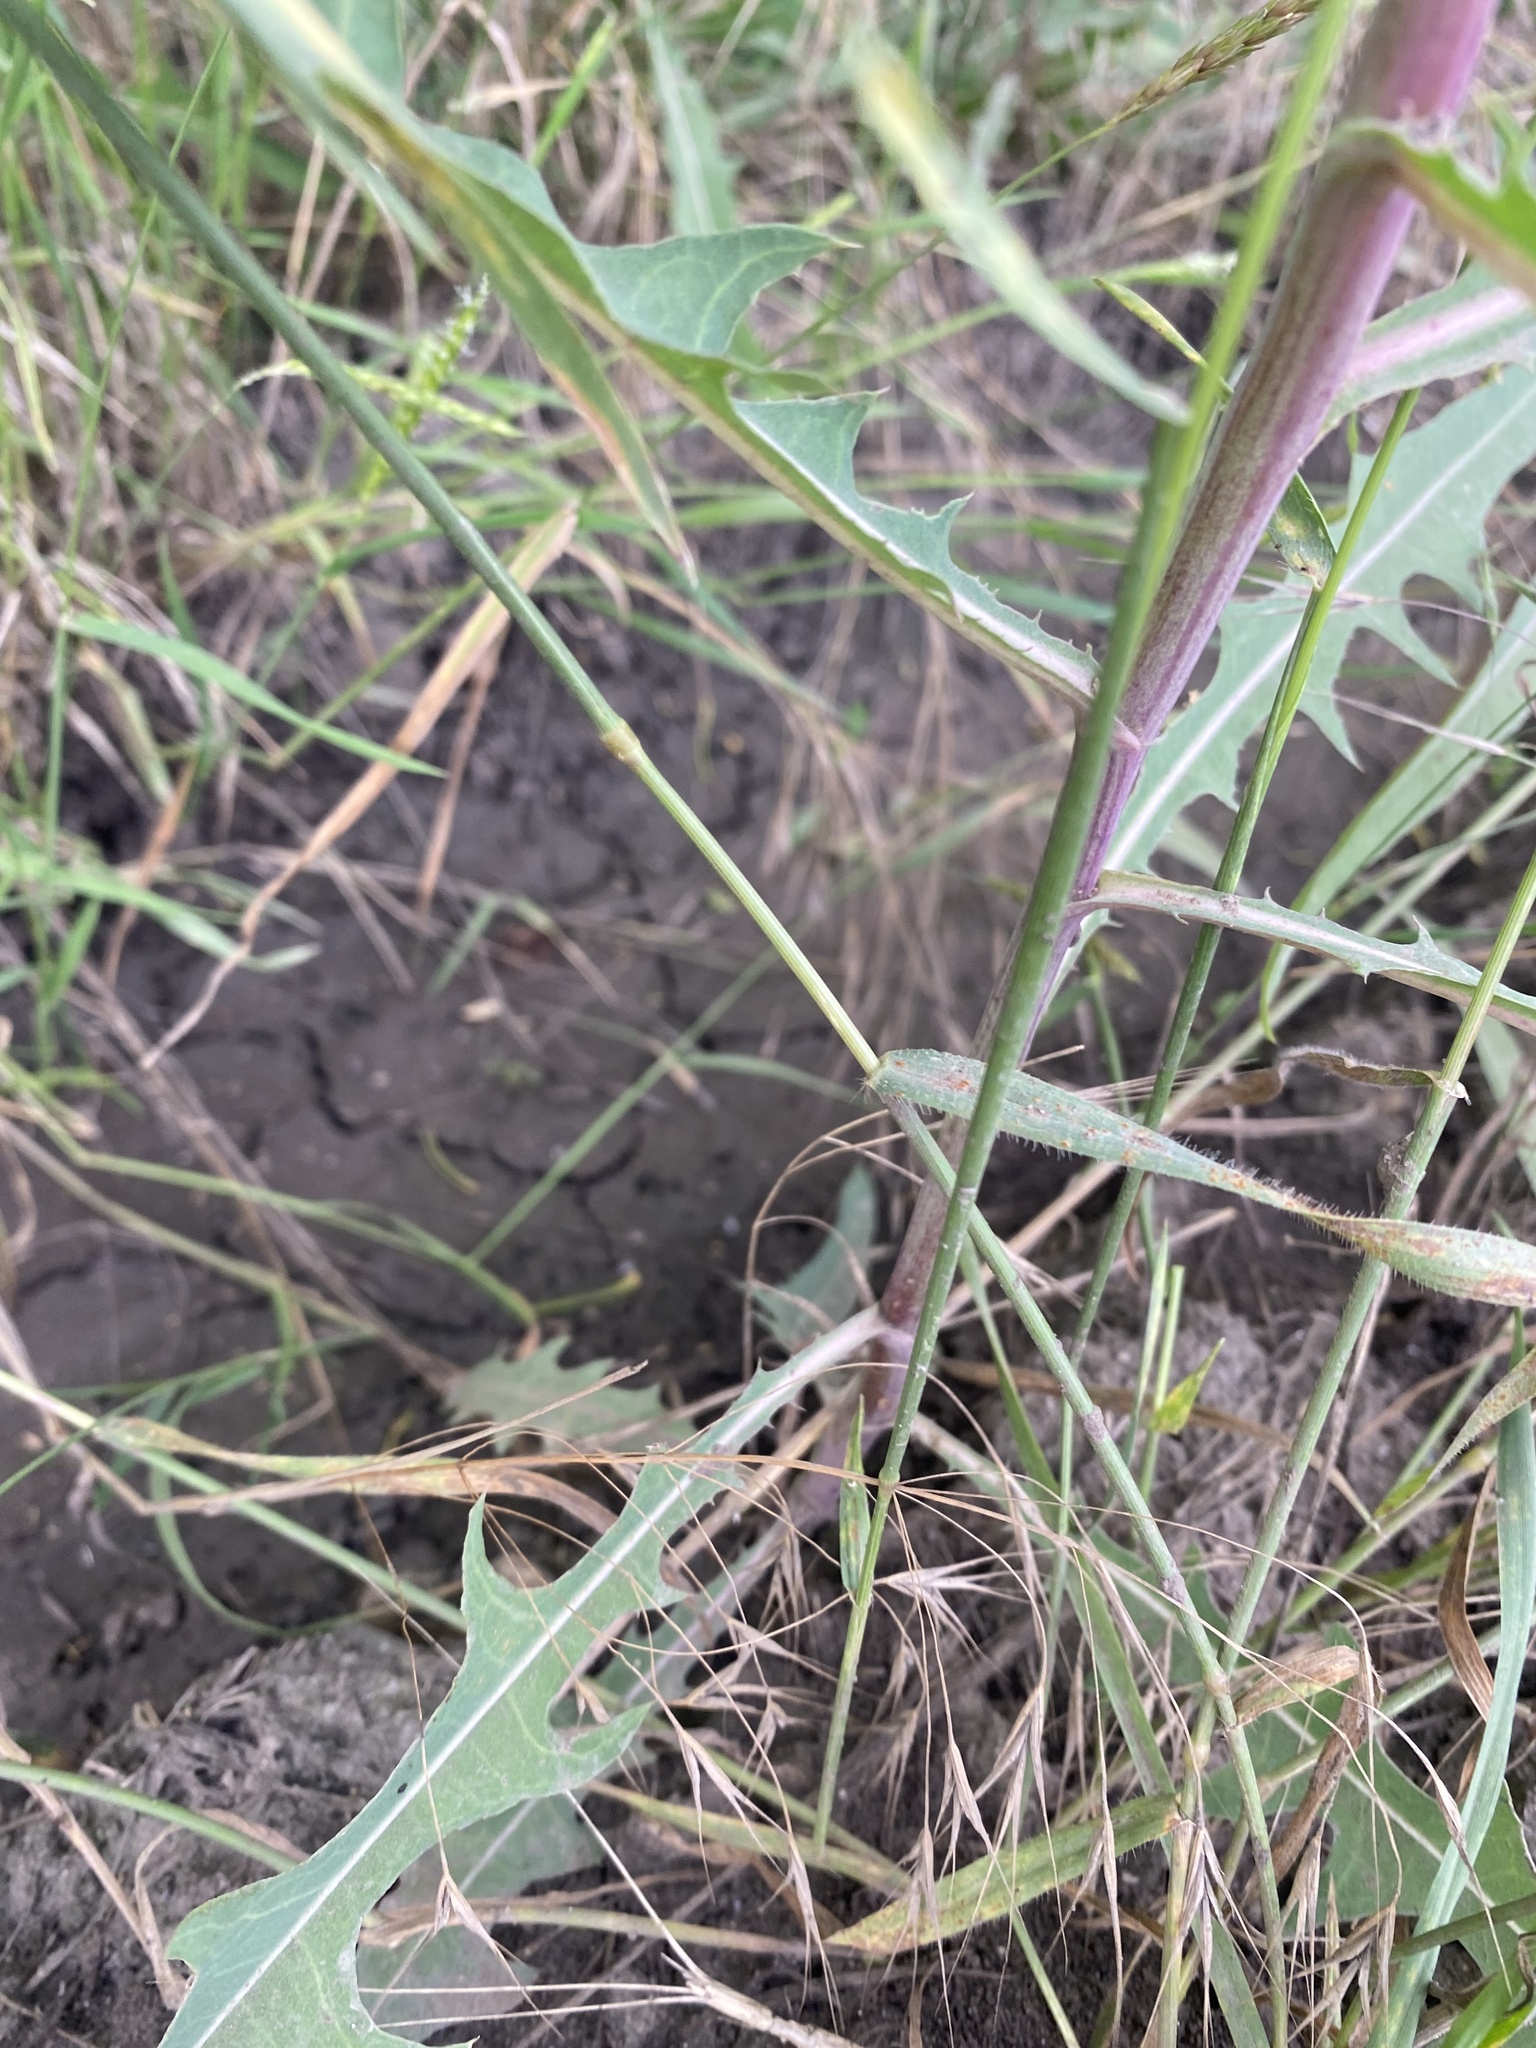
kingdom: Plantae
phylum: Tracheophyta
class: Magnoliopsida
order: Asterales
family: Asteraceae
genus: Lactuca
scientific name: Lactuca tatarica
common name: Blue lettuce
